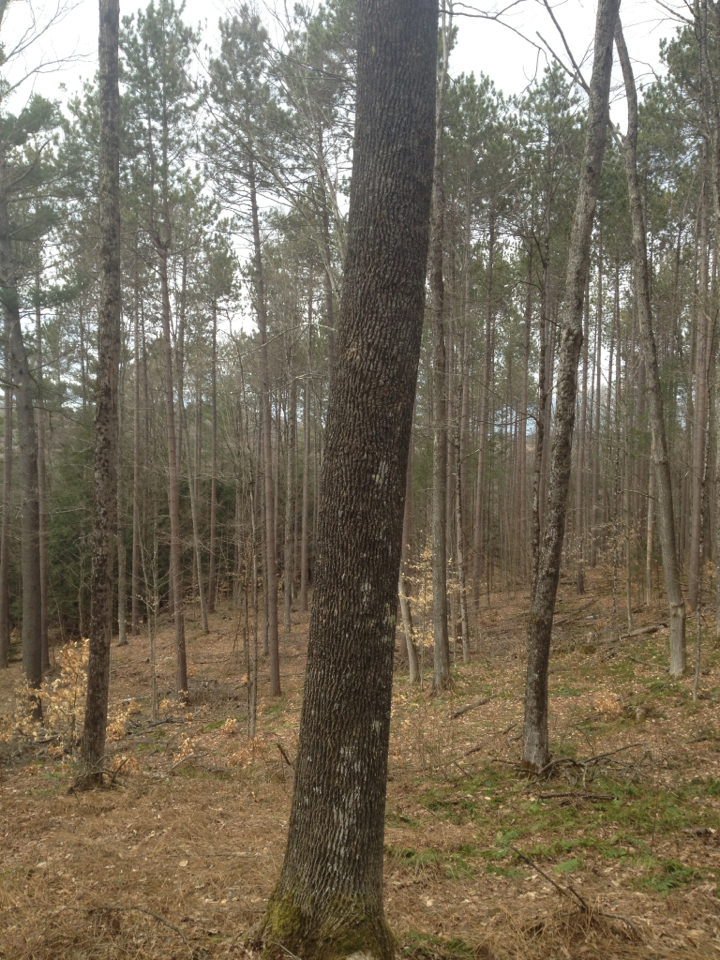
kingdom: Plantae
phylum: Tracheophyta
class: Magnoliopsida
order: Lamiales
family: Oleaceae
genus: Fraxinus
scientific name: Fraxinus americana
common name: White ash
